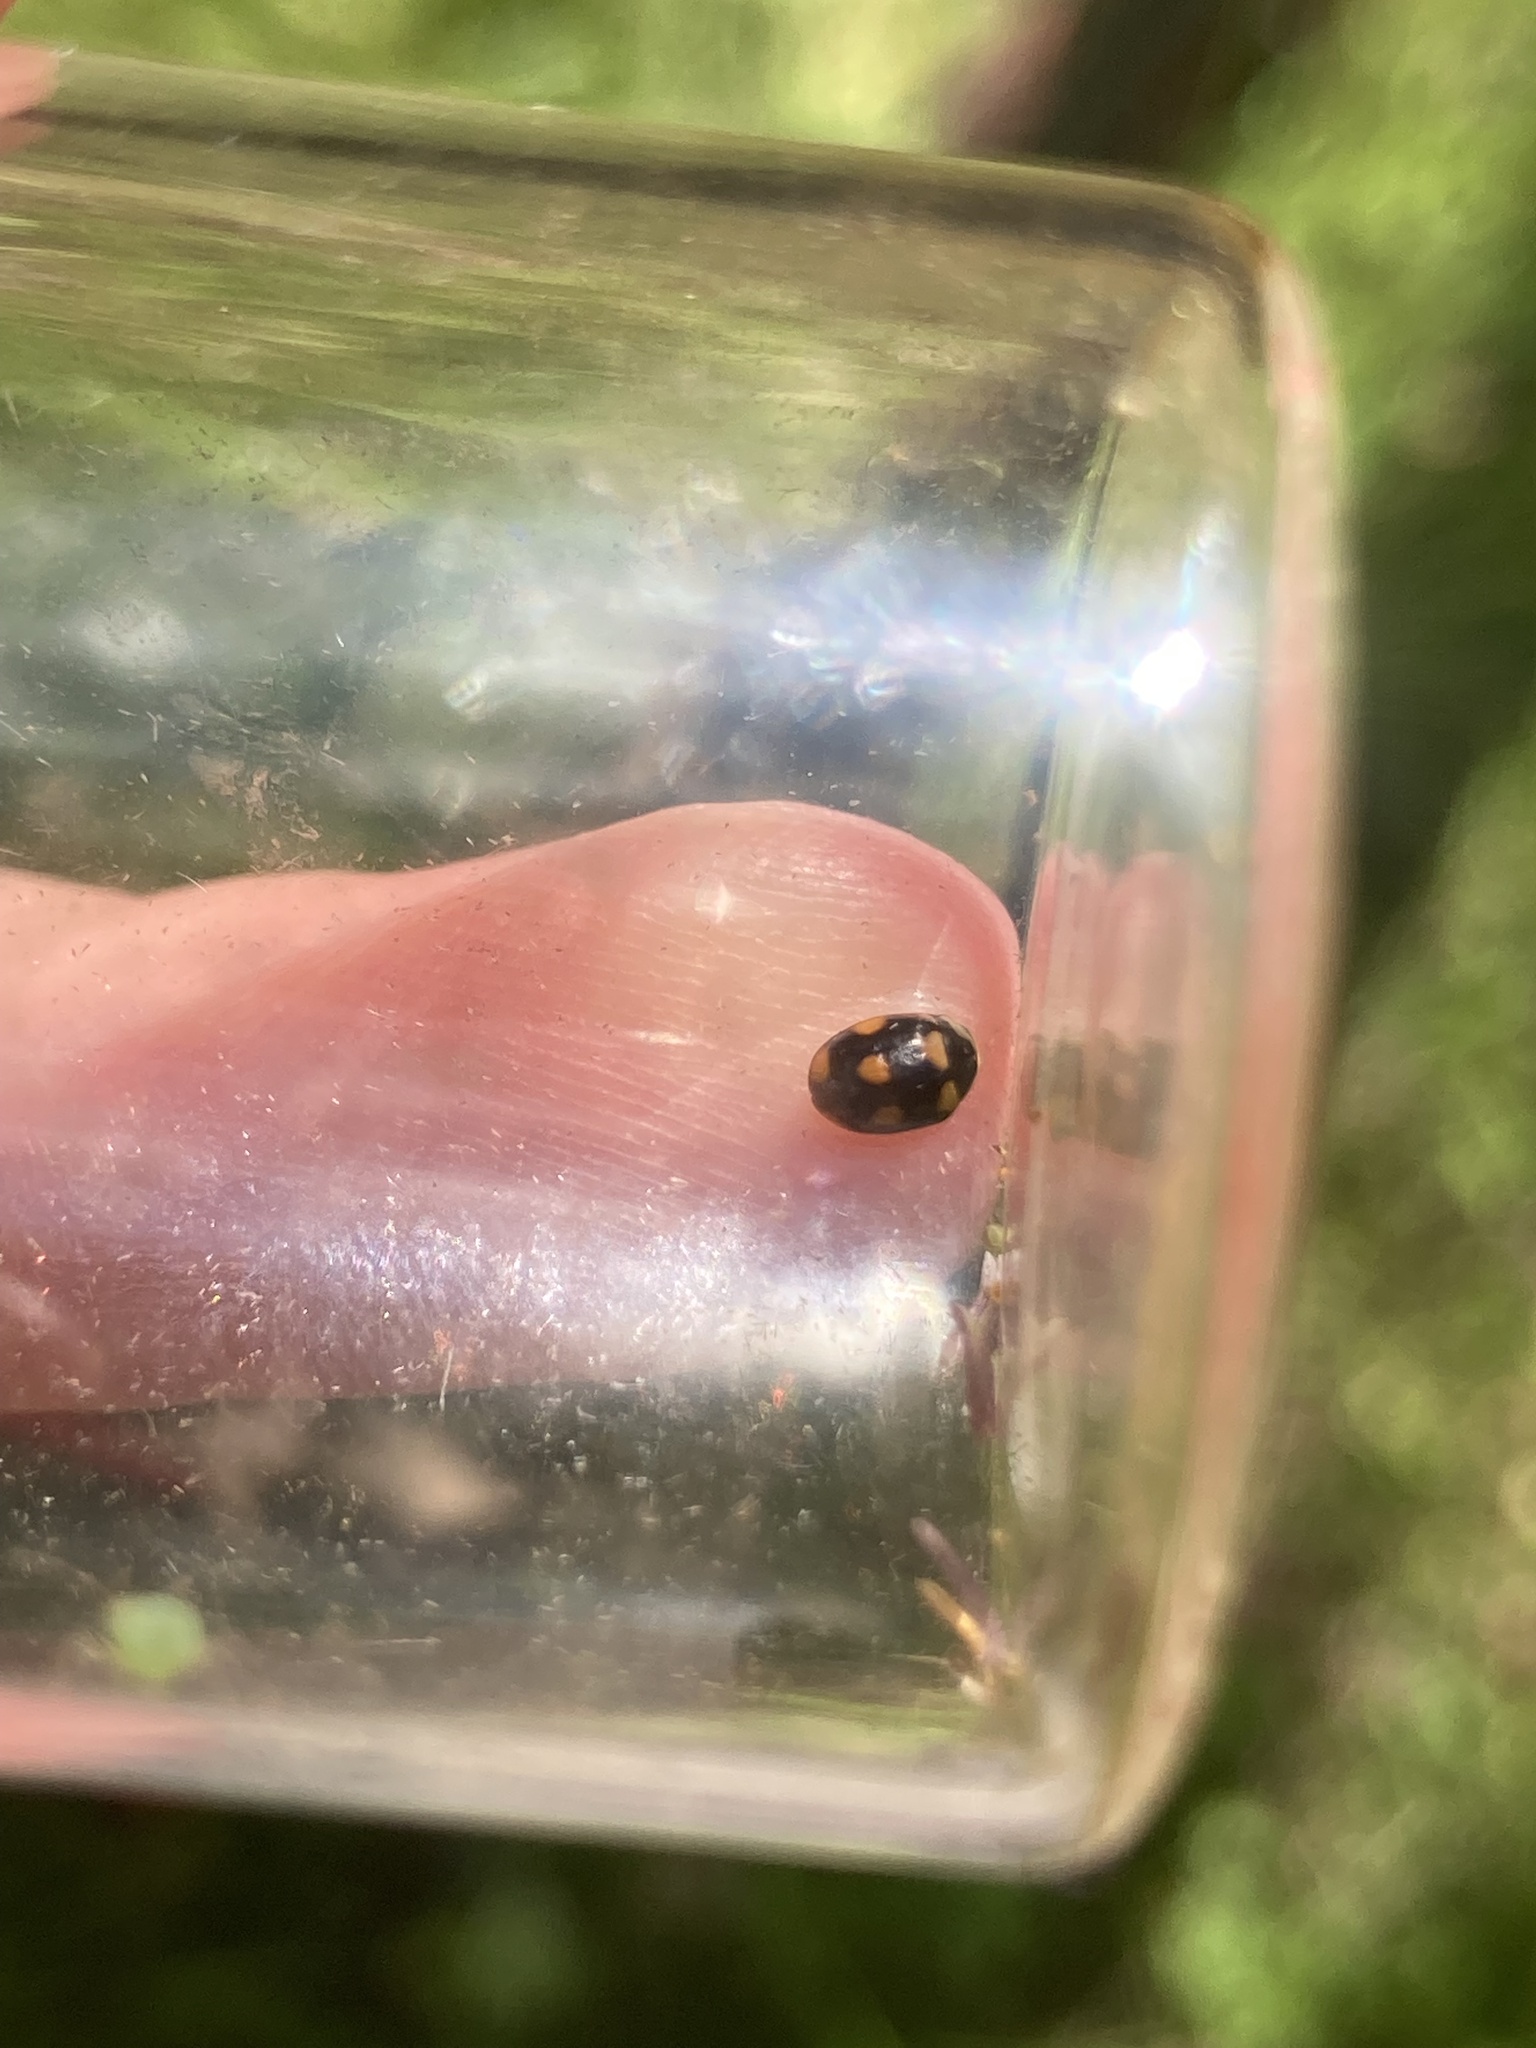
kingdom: Animalia
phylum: Arthropoda
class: Insecta
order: Coleoptera
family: Coccinellidae
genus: Brachiacantha
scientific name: Brachiacantha ursina
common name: Ursine spurleg lady beetle
